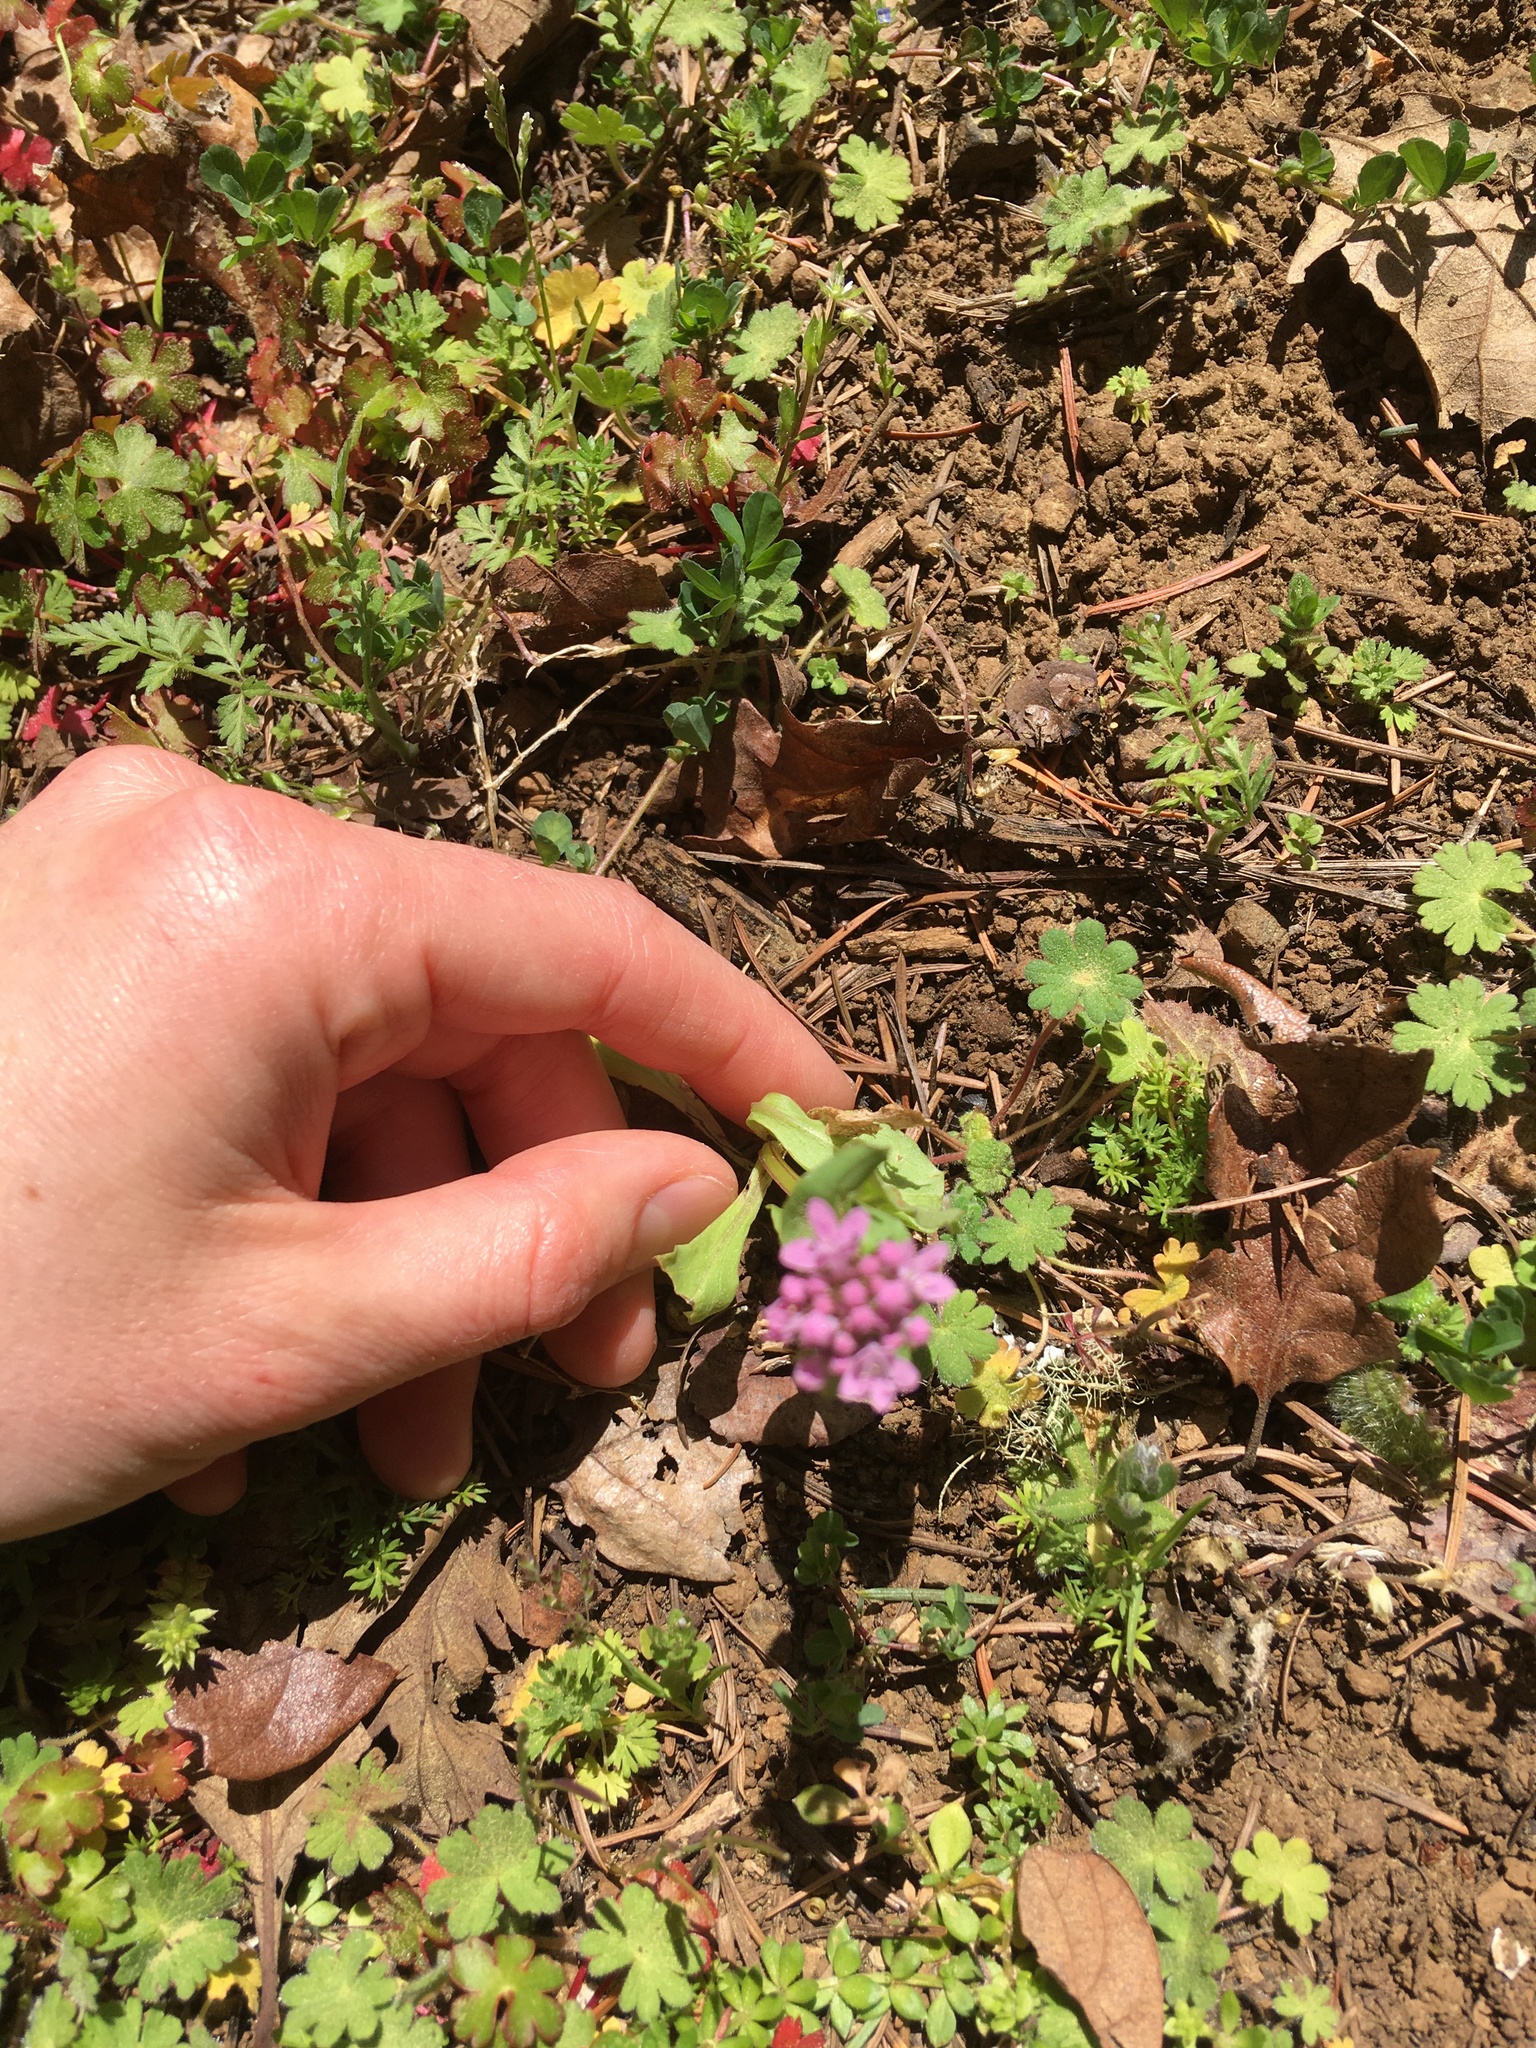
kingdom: Plantae
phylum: Tracheophyta
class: Magnoliopsida
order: Dipsacales
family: Caprifoliaceae
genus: Plectritis
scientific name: Plectritis congesta
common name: Pink plectritis
